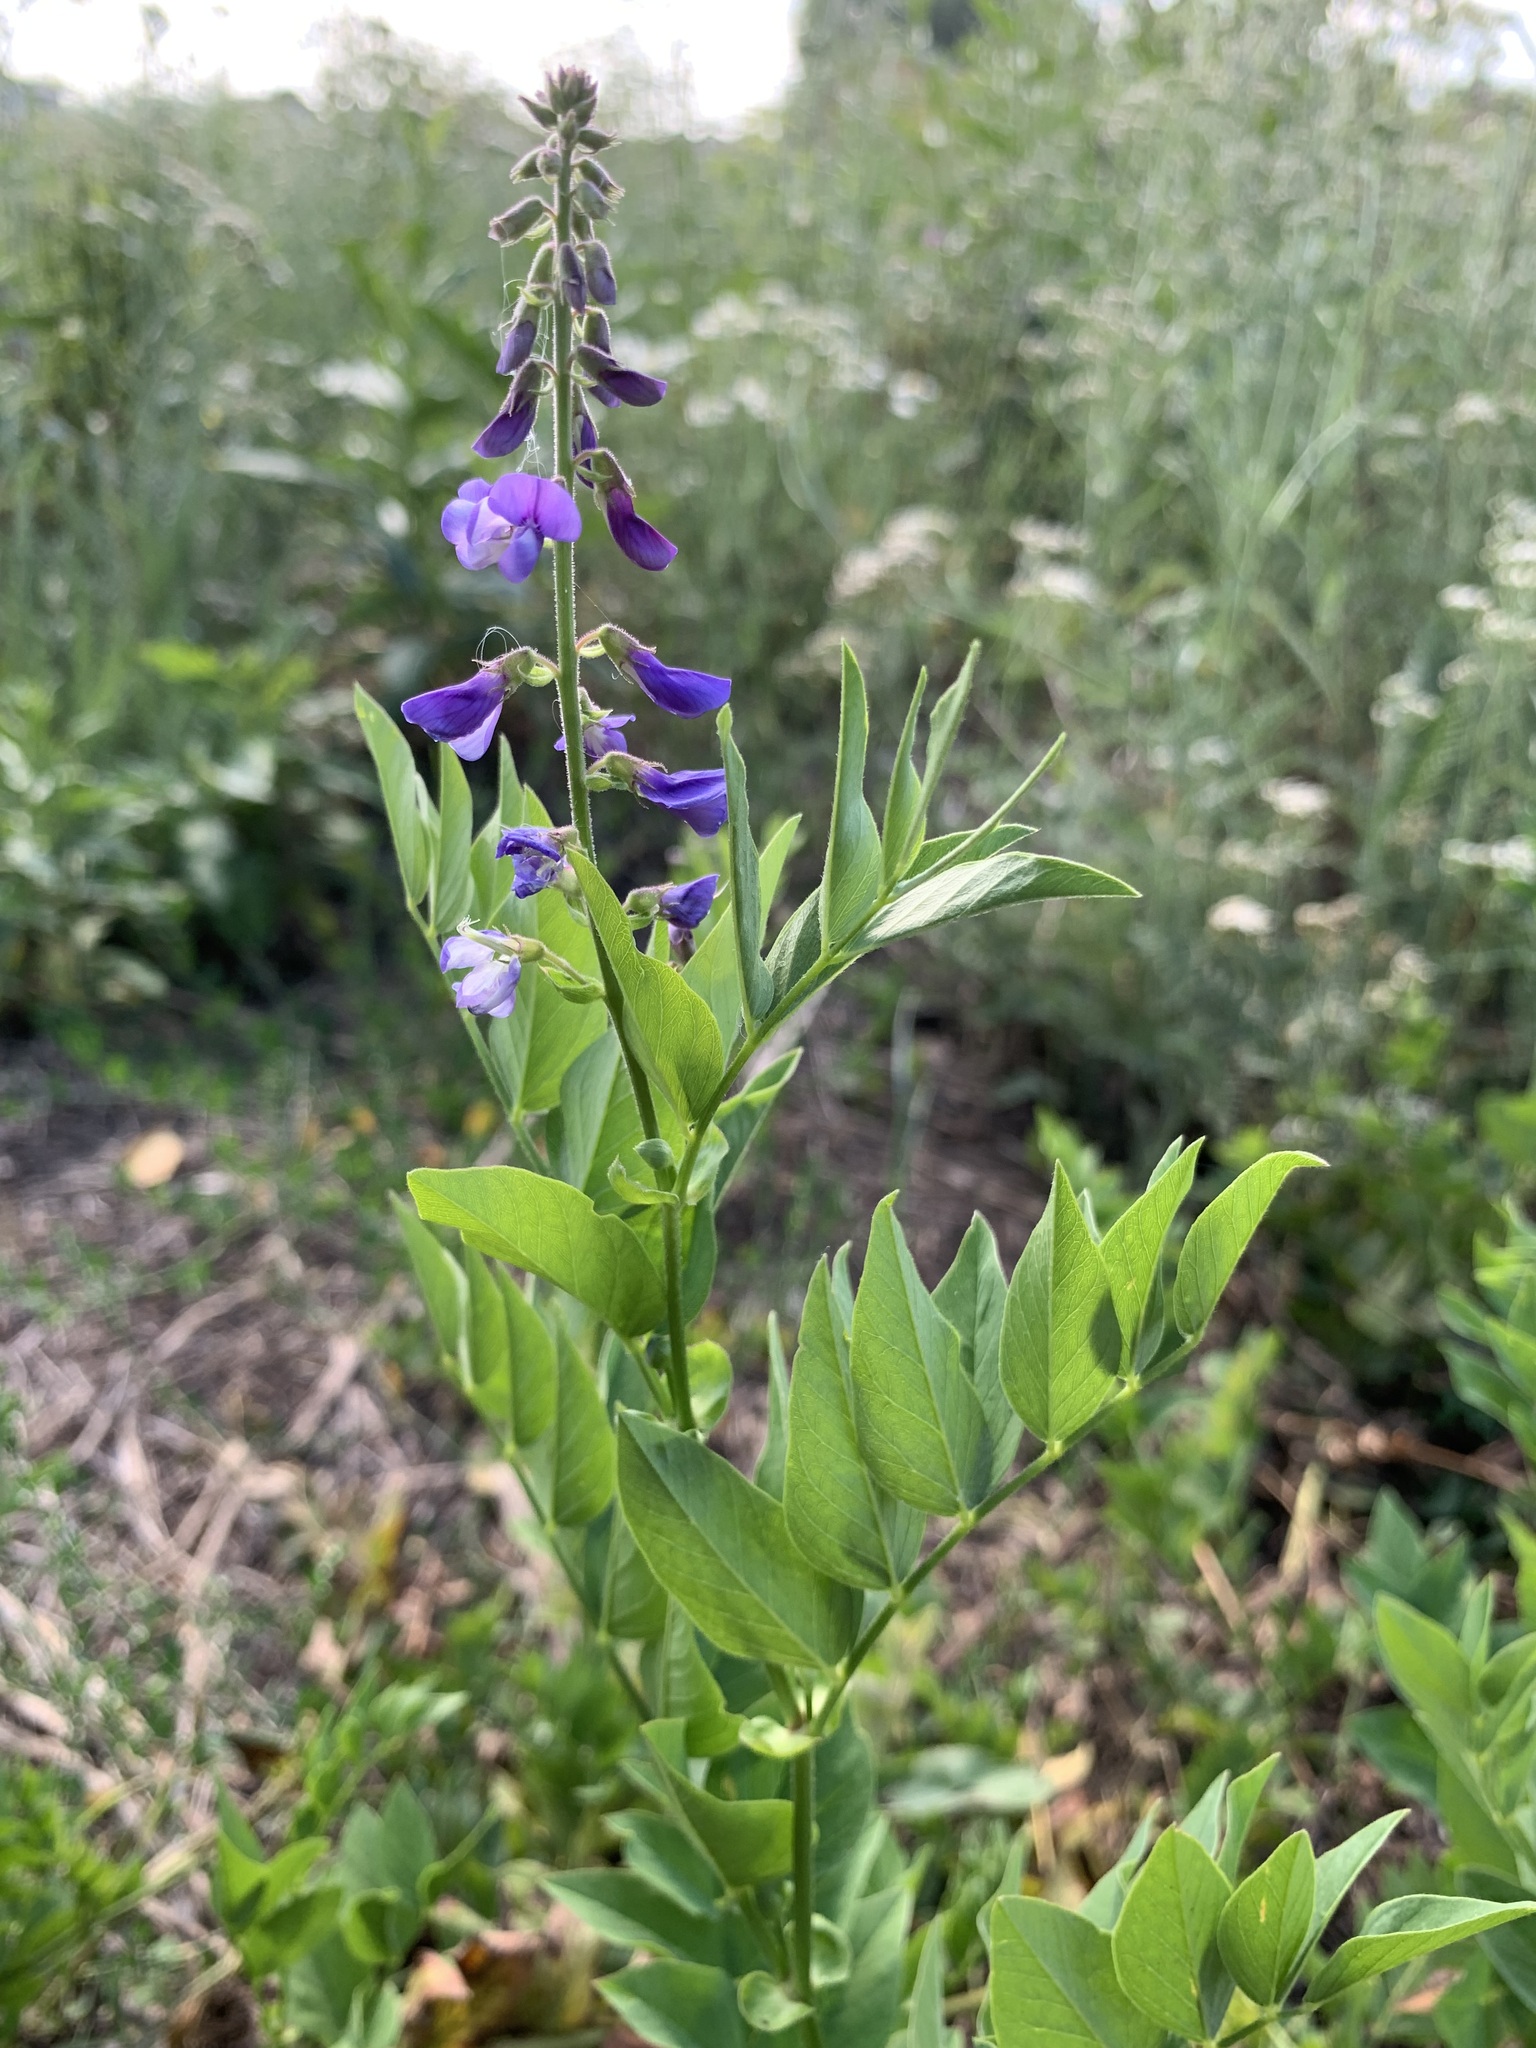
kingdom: Plantae
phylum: Tracheophyta
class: Magnoliopsida
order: Fabales
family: Fabaceae
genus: Galega
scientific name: Galega orientalis
